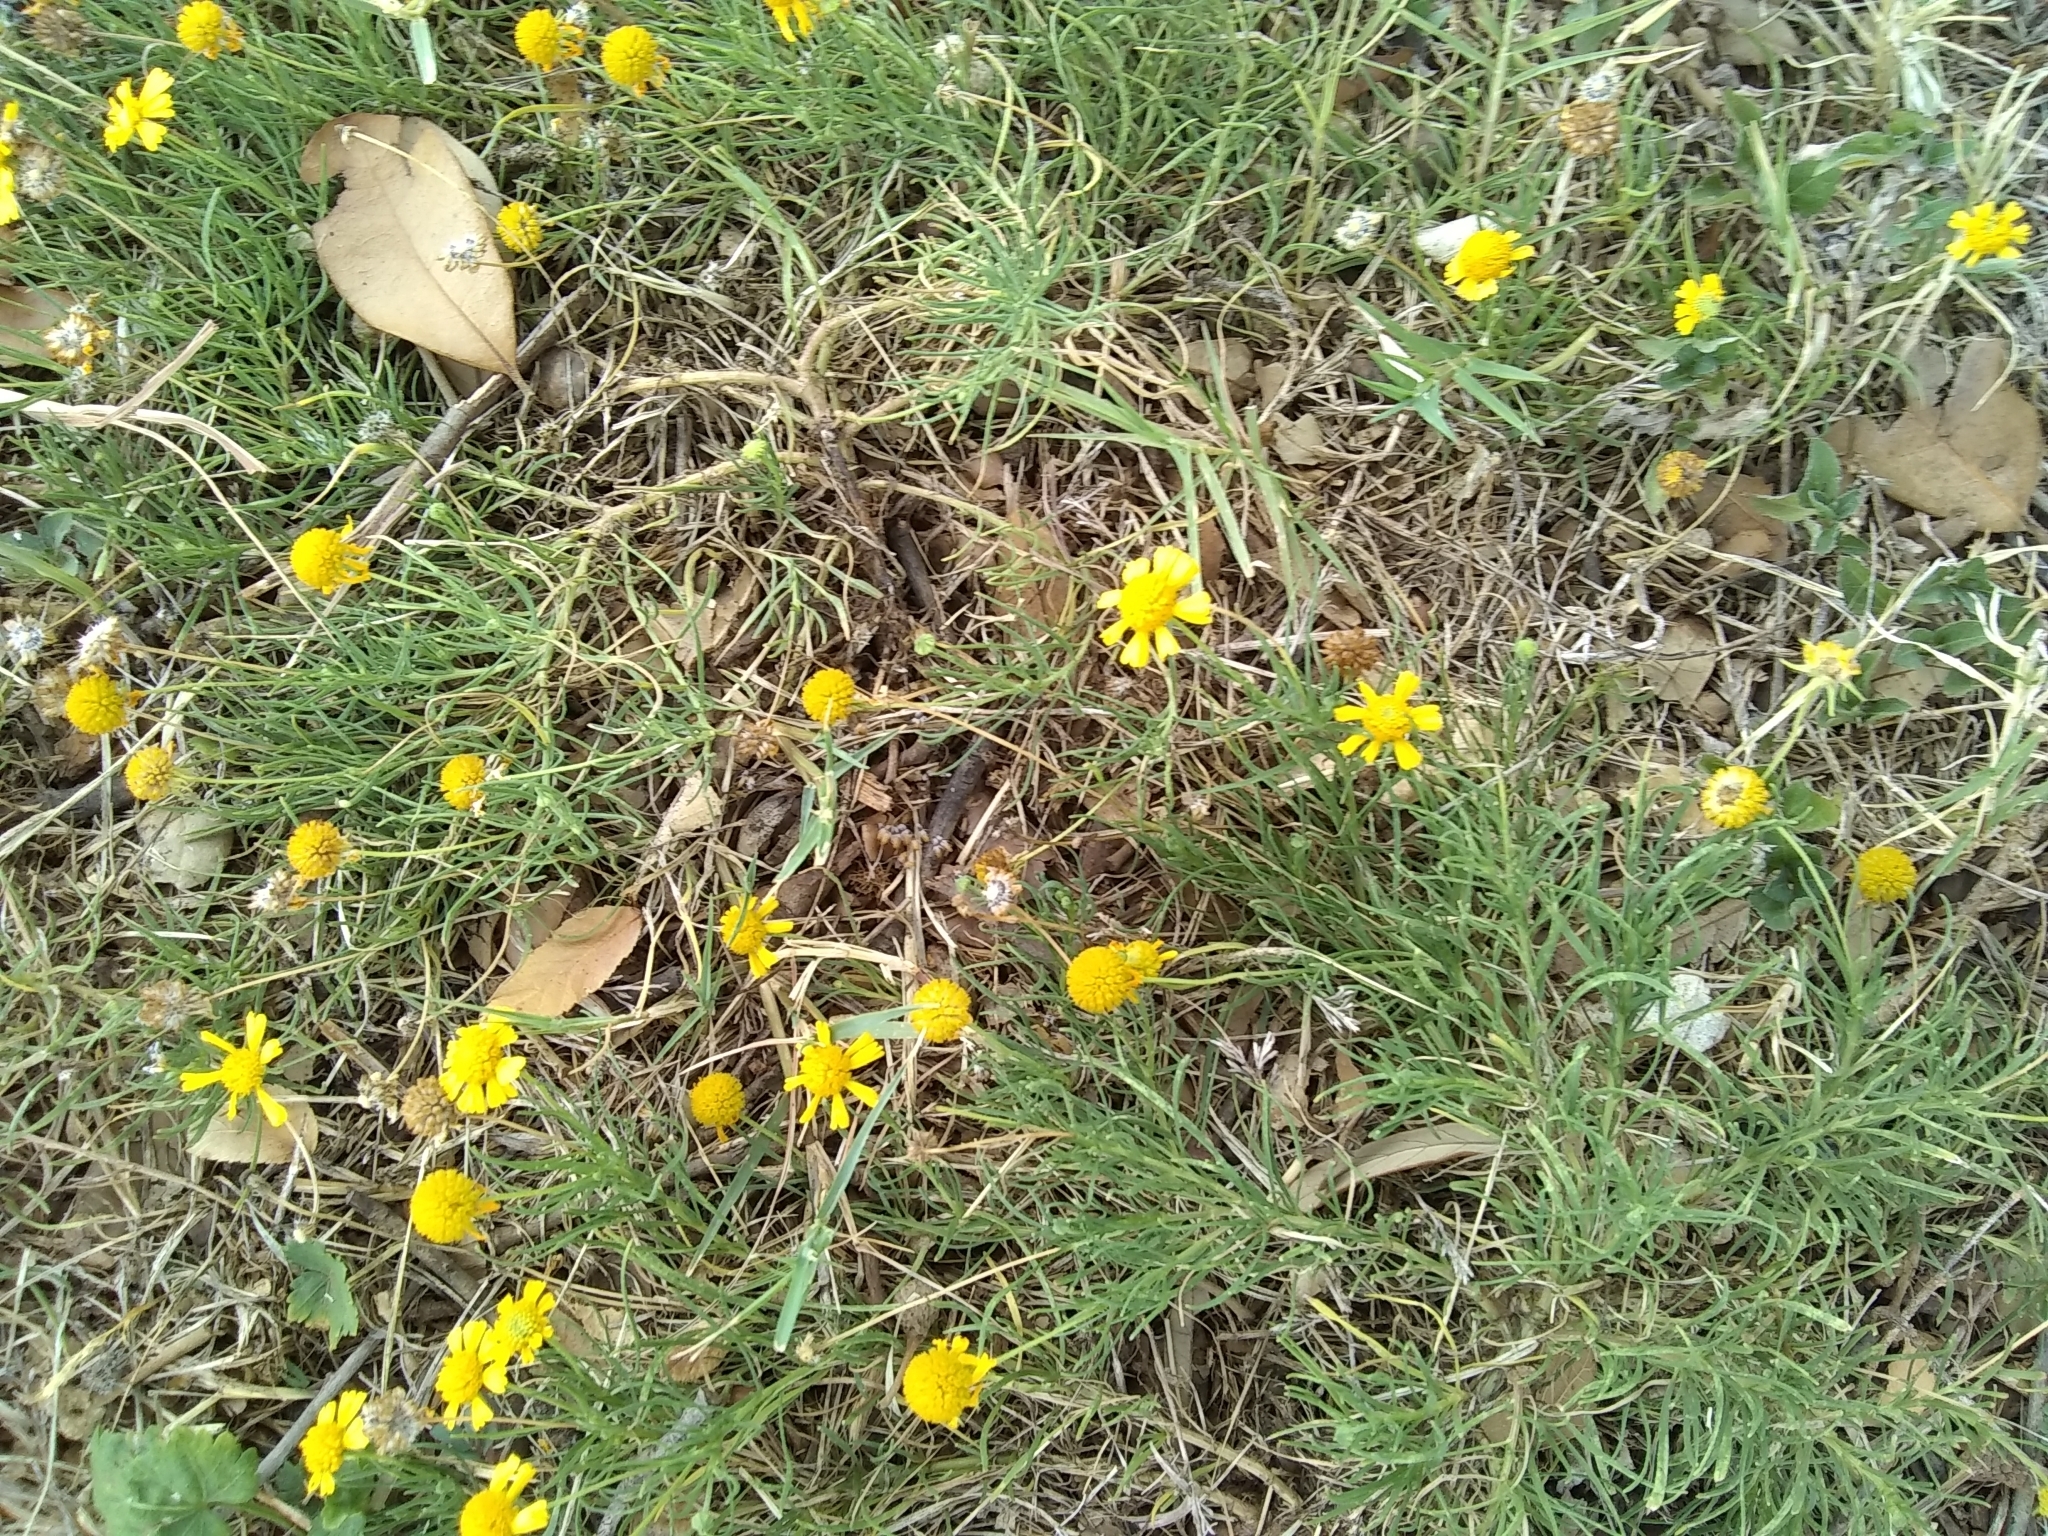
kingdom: Plantae
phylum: Tracheophyta
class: Magnoliopsida
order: Asterales
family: Asteraceae
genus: Helenium
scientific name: Helenium amarum
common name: Bitter sneezeweed
